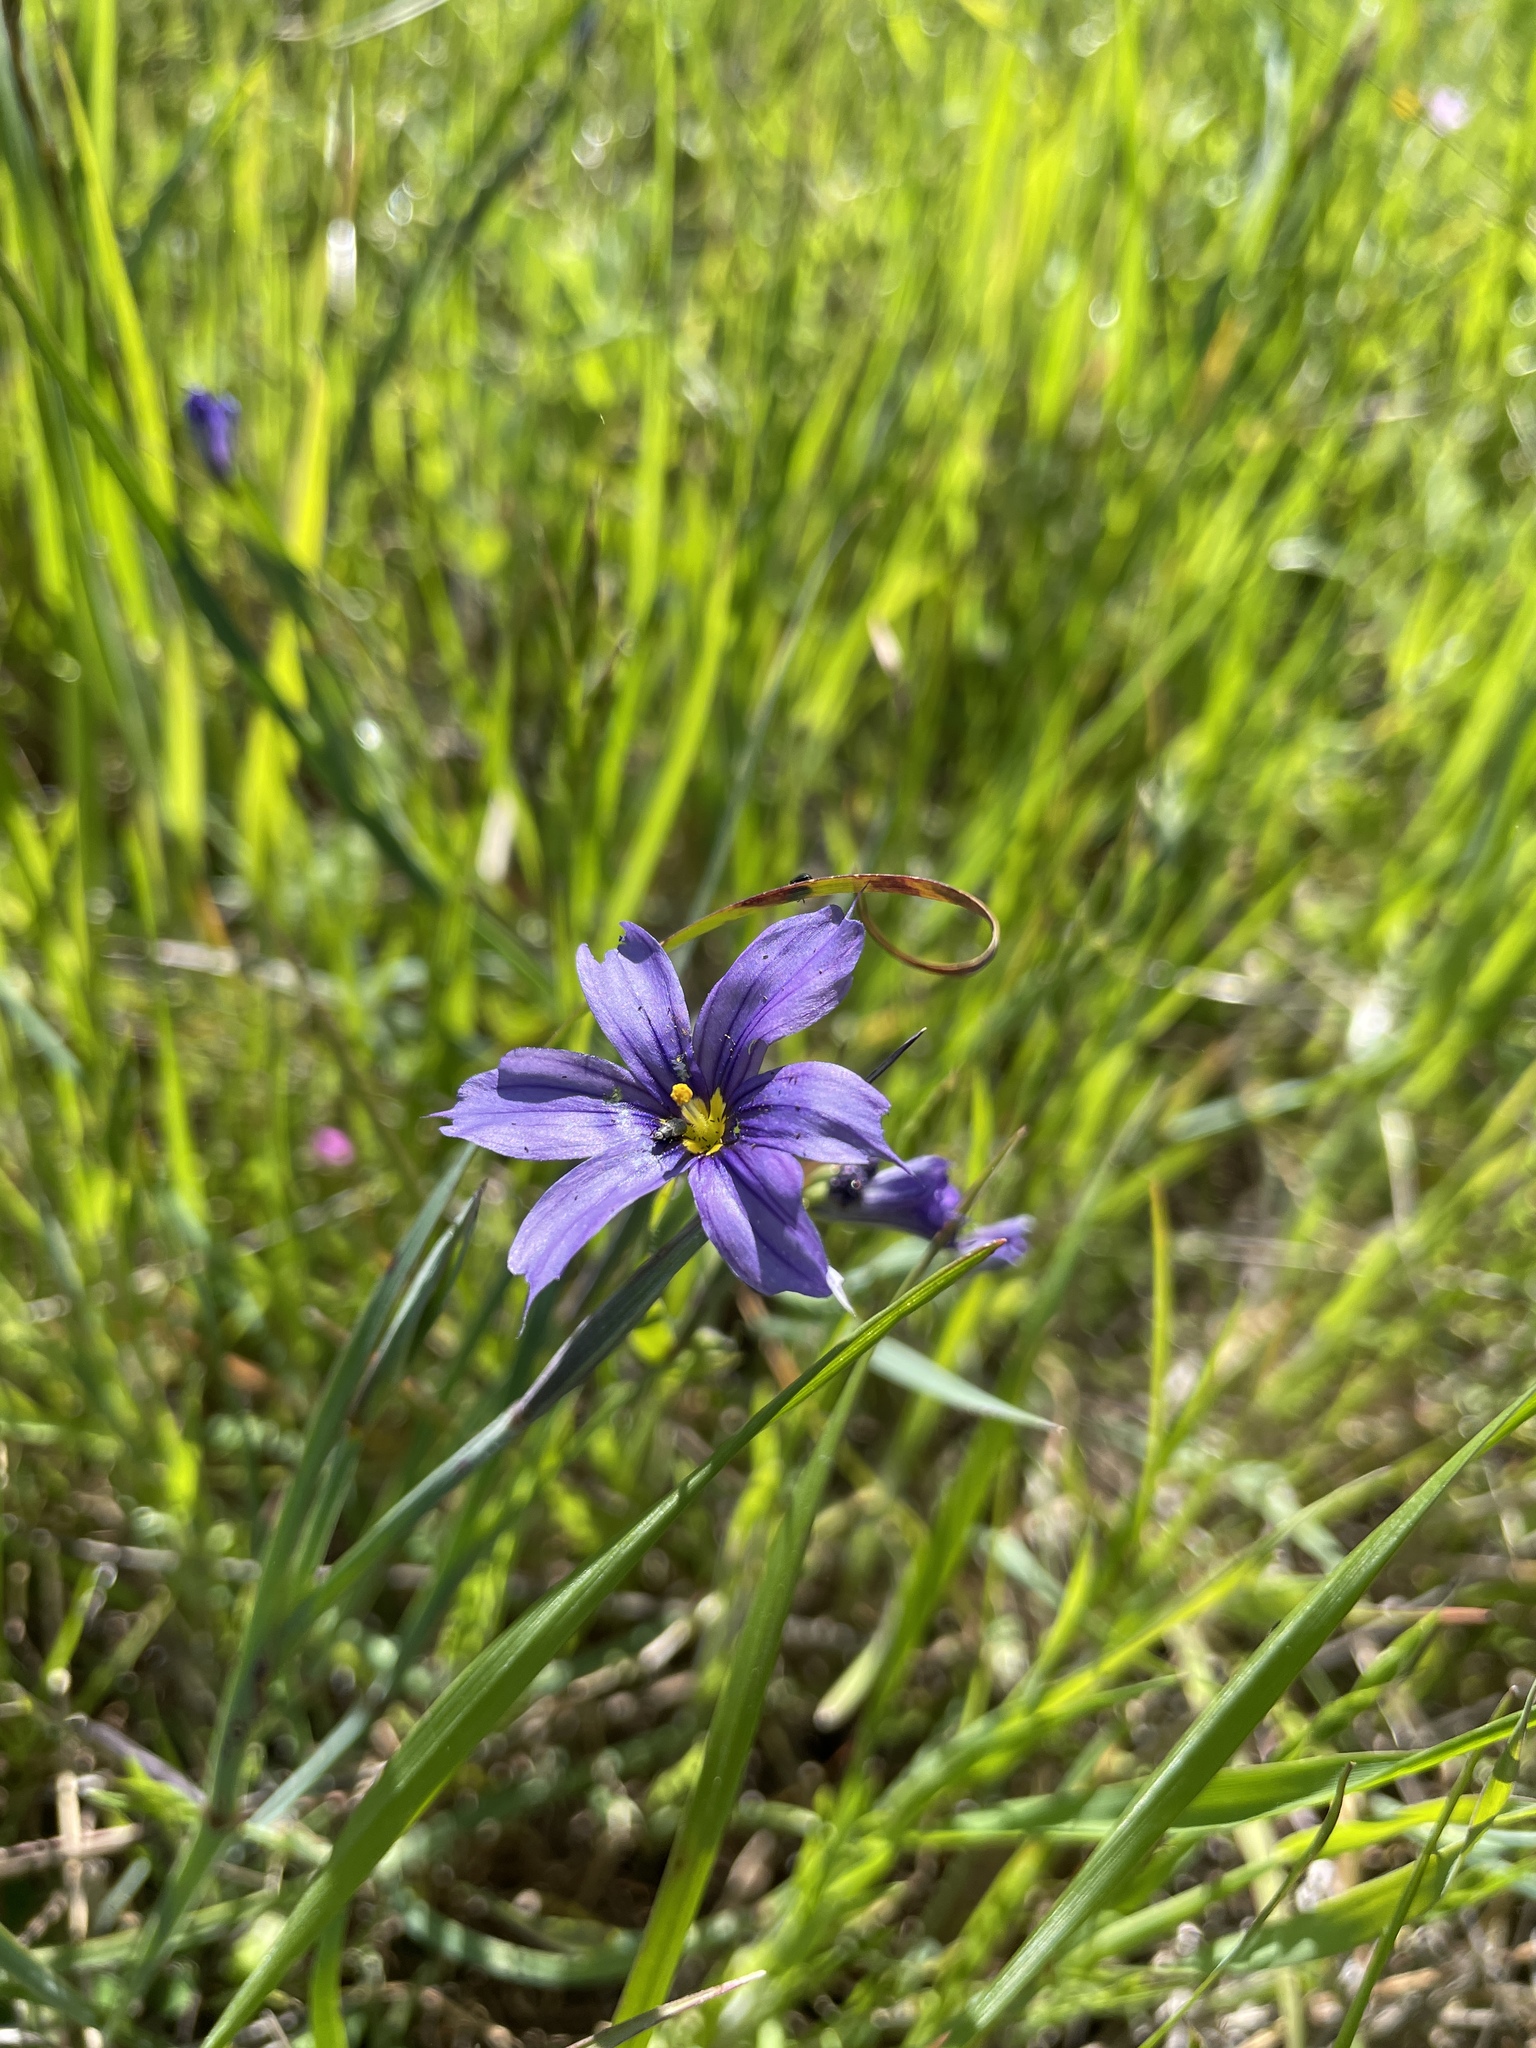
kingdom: Plantae
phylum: Tracheophyta
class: Liliopsida
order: Asparagales
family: Iridaceae
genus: Sisyrinchium
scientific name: Sisyrinchium bellum
